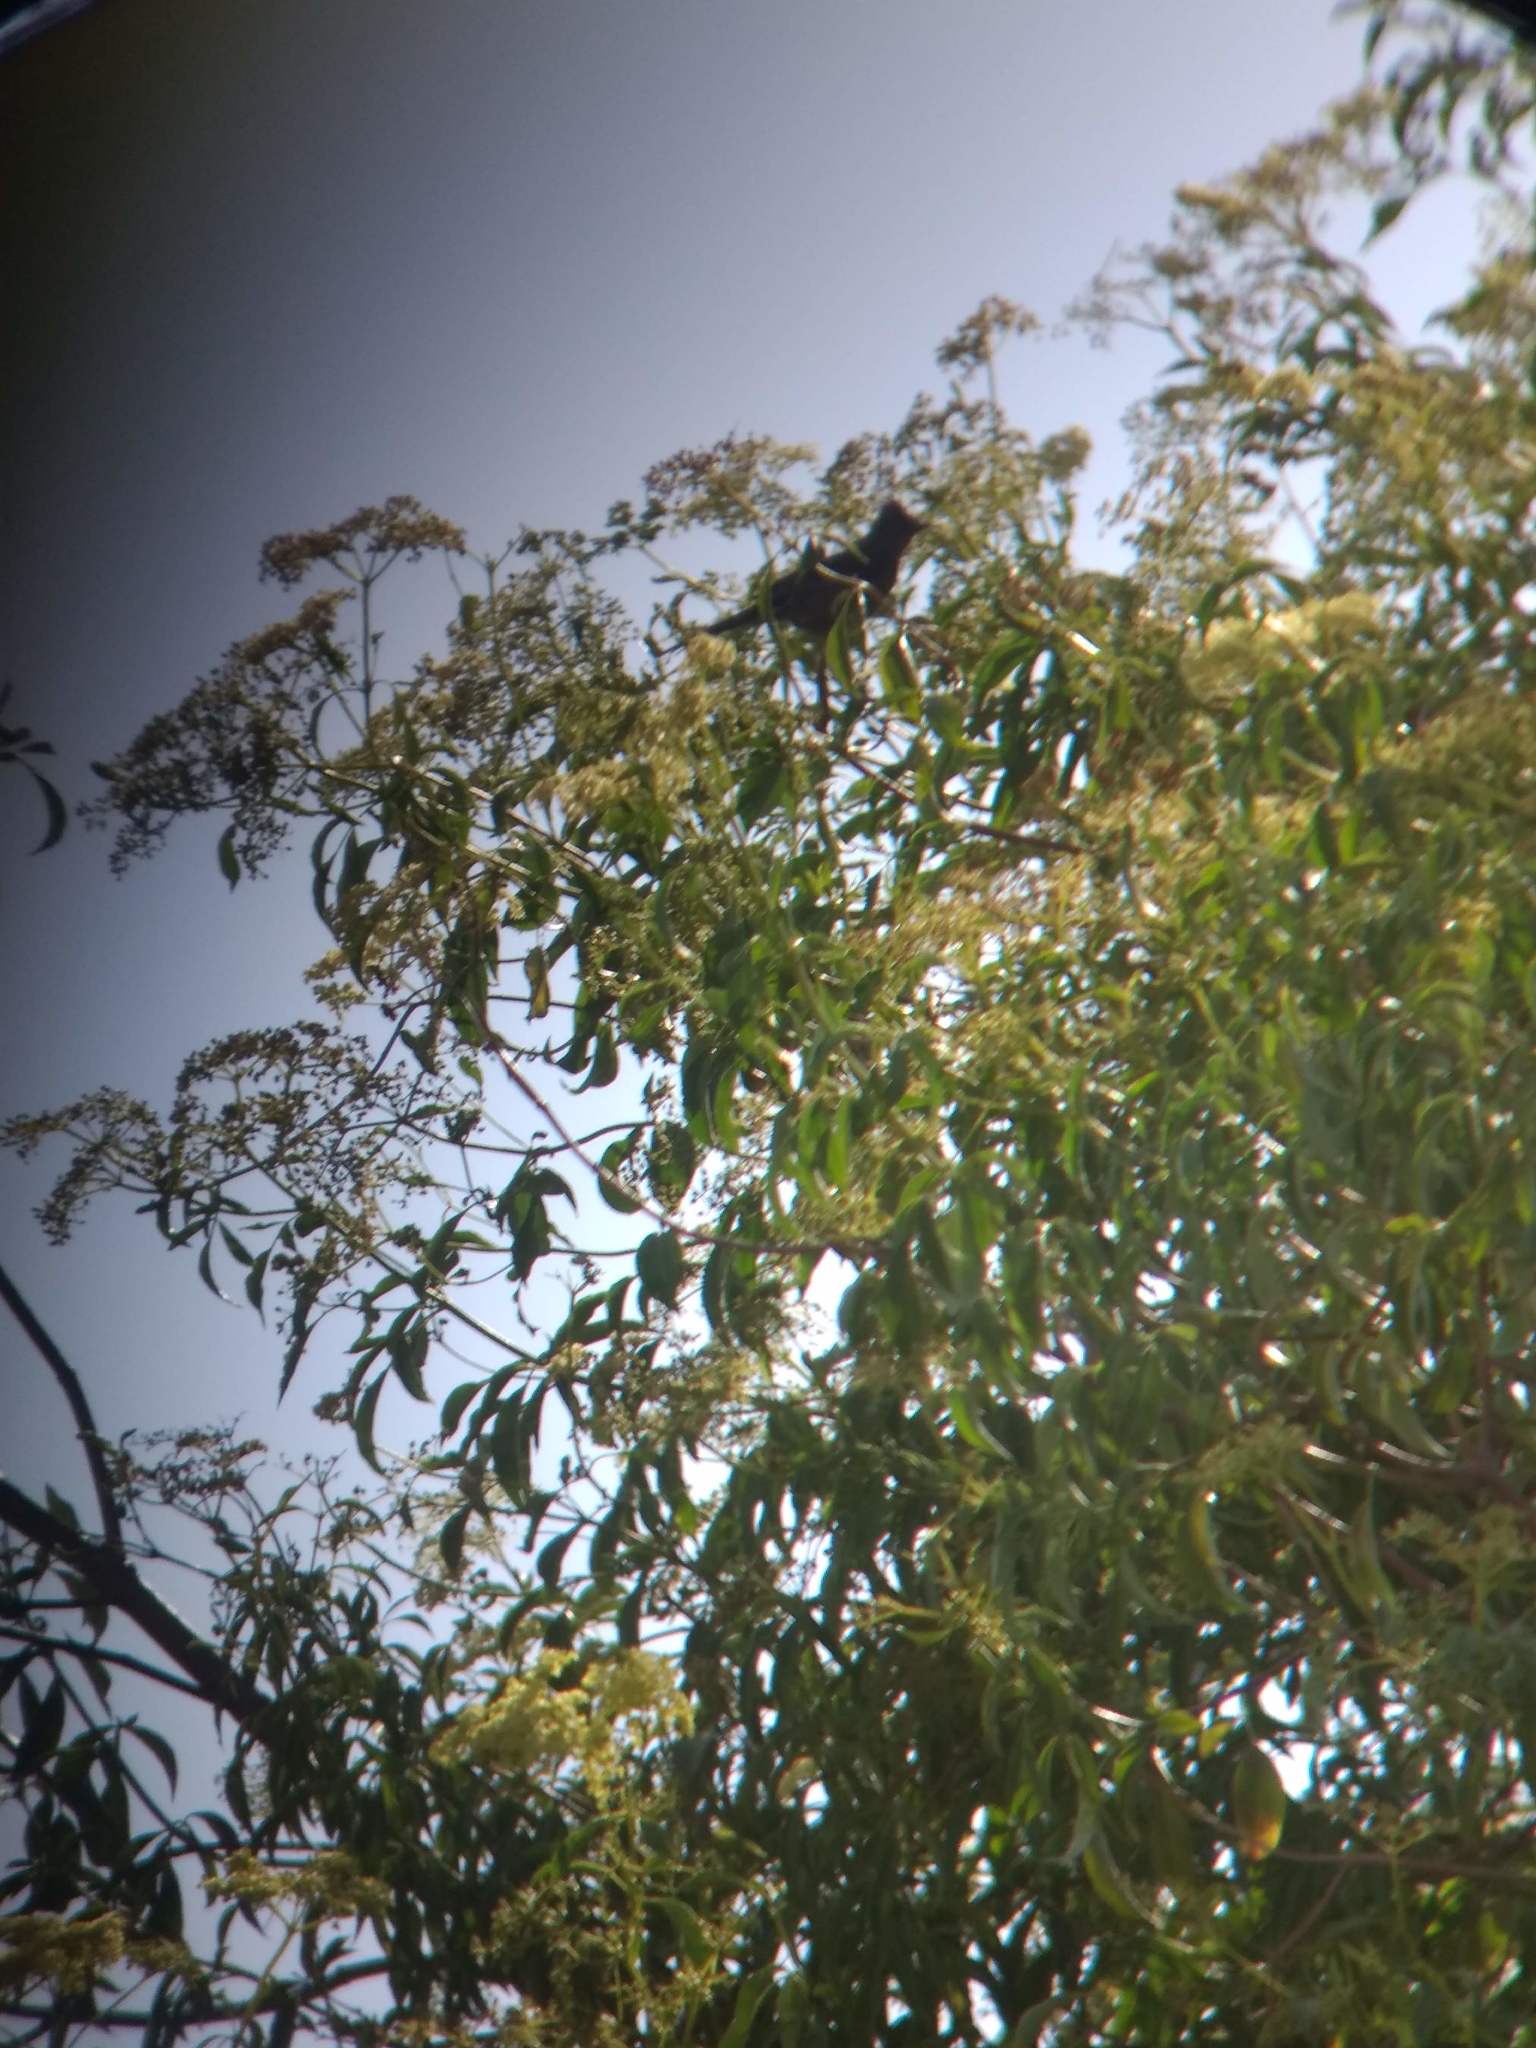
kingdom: Animalia
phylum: Chordata
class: Aves
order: Passeriformes
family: Ptilogonatidae
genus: Phainopepla
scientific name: Phainopepla nitens
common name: Phainopepla
